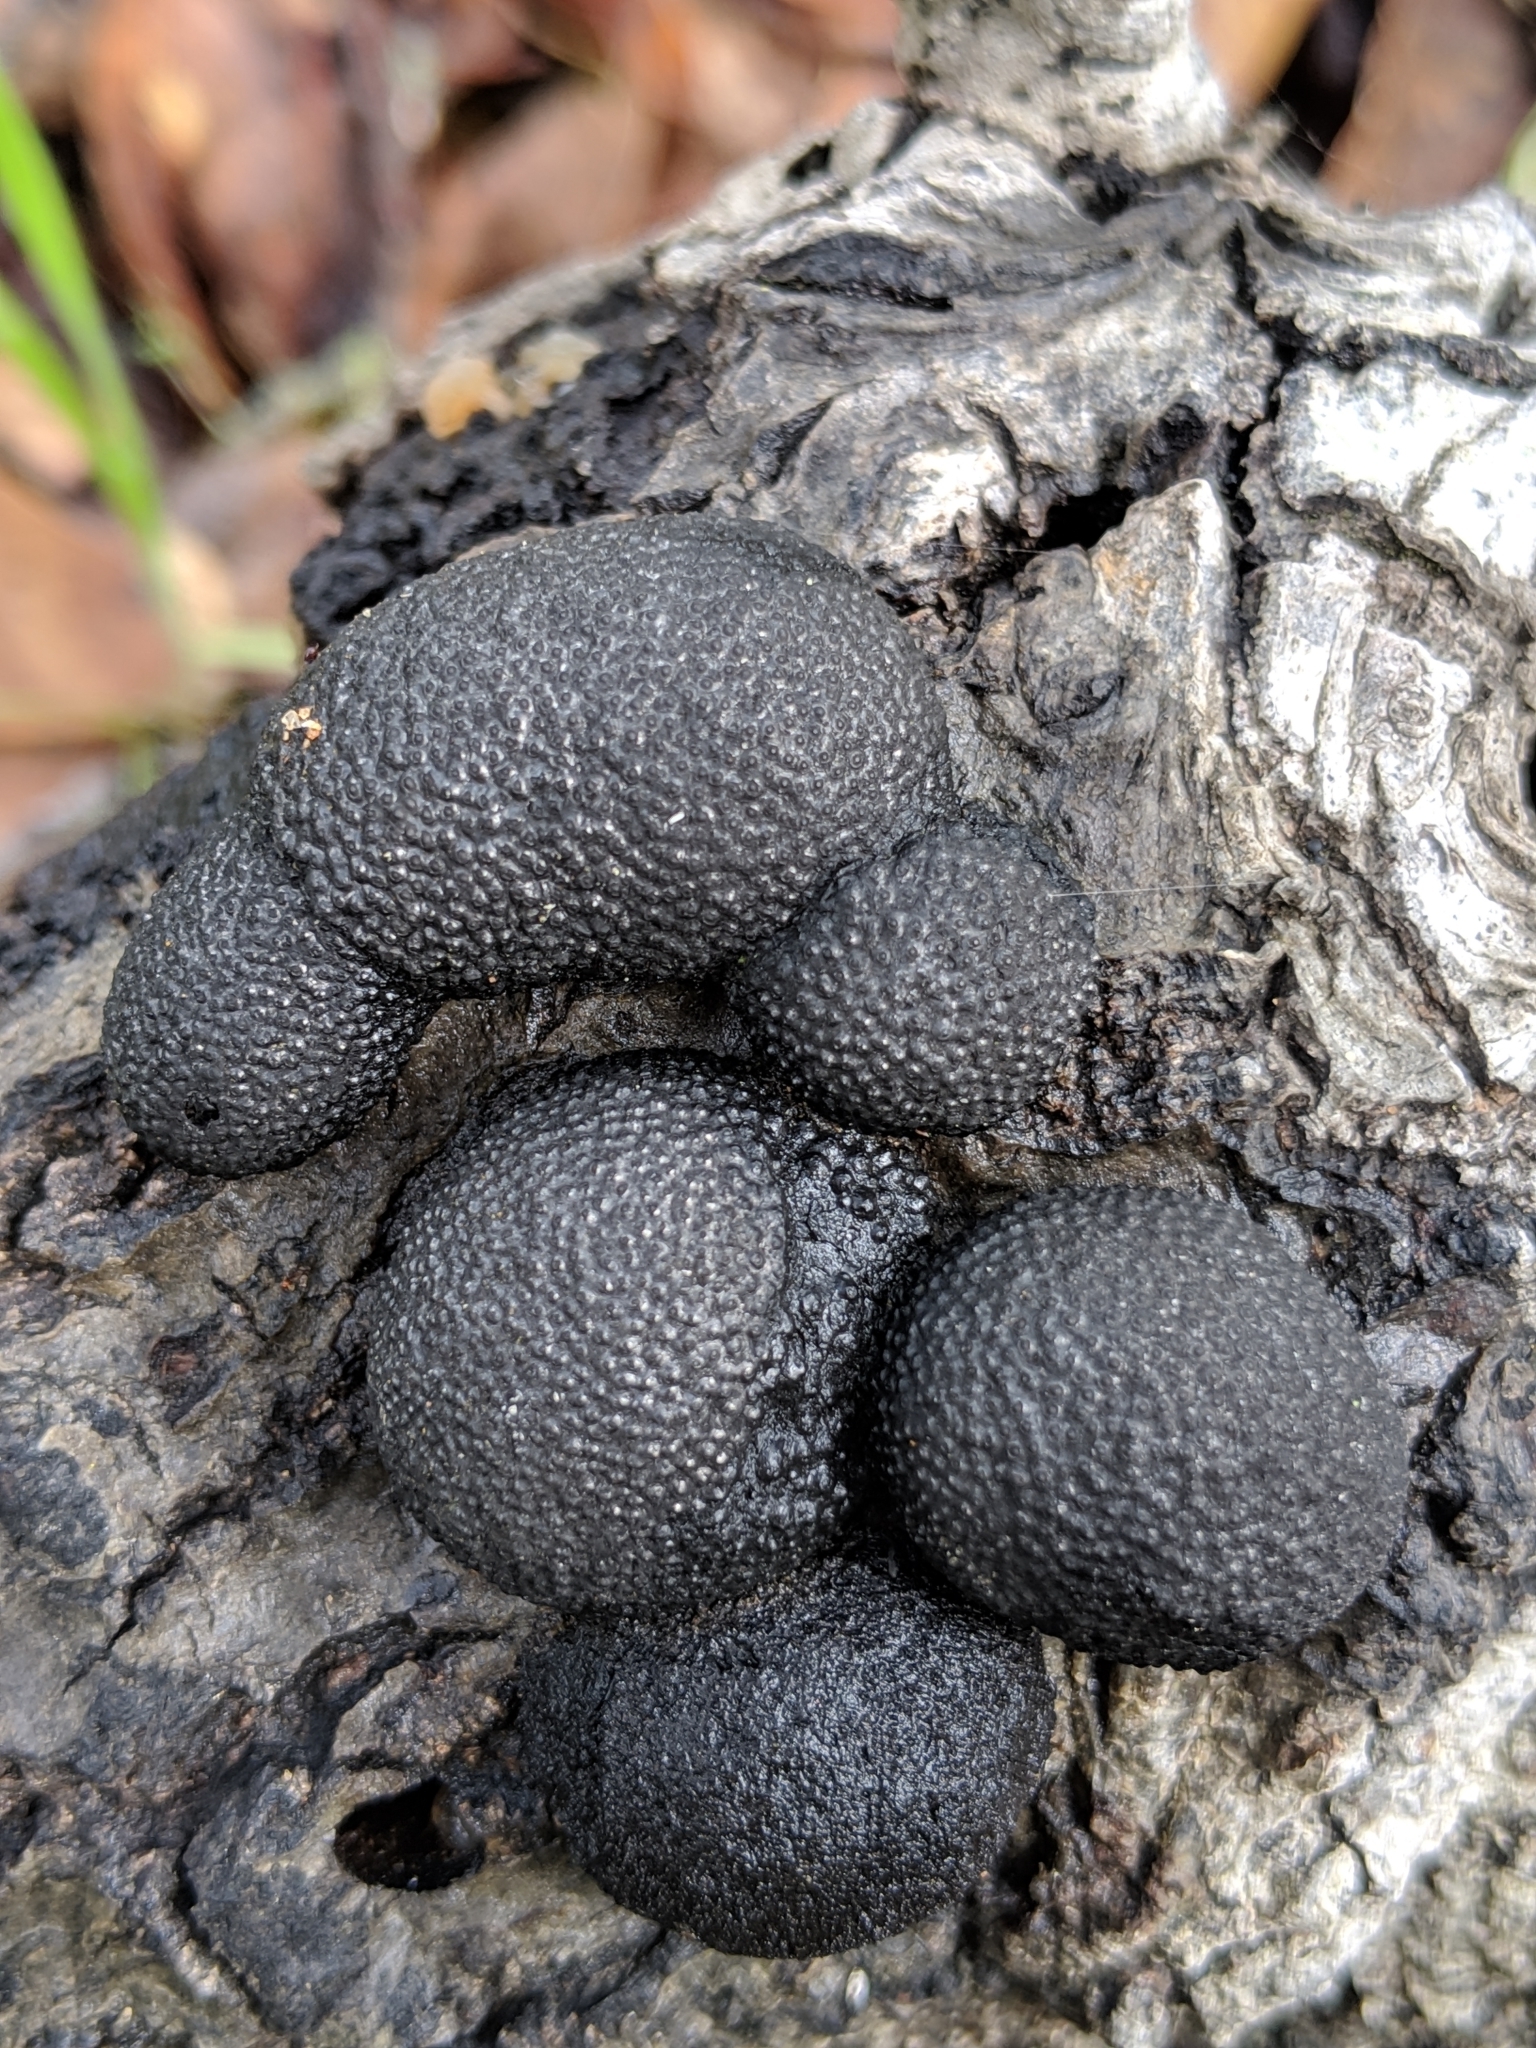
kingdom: Fungi
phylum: Ascomycota
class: Sordariomycetes
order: Xylariales
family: Hypoxylaceae
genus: Annulohypoxylon
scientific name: Annulohypoxylon thouarsianum
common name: Cramp balls
